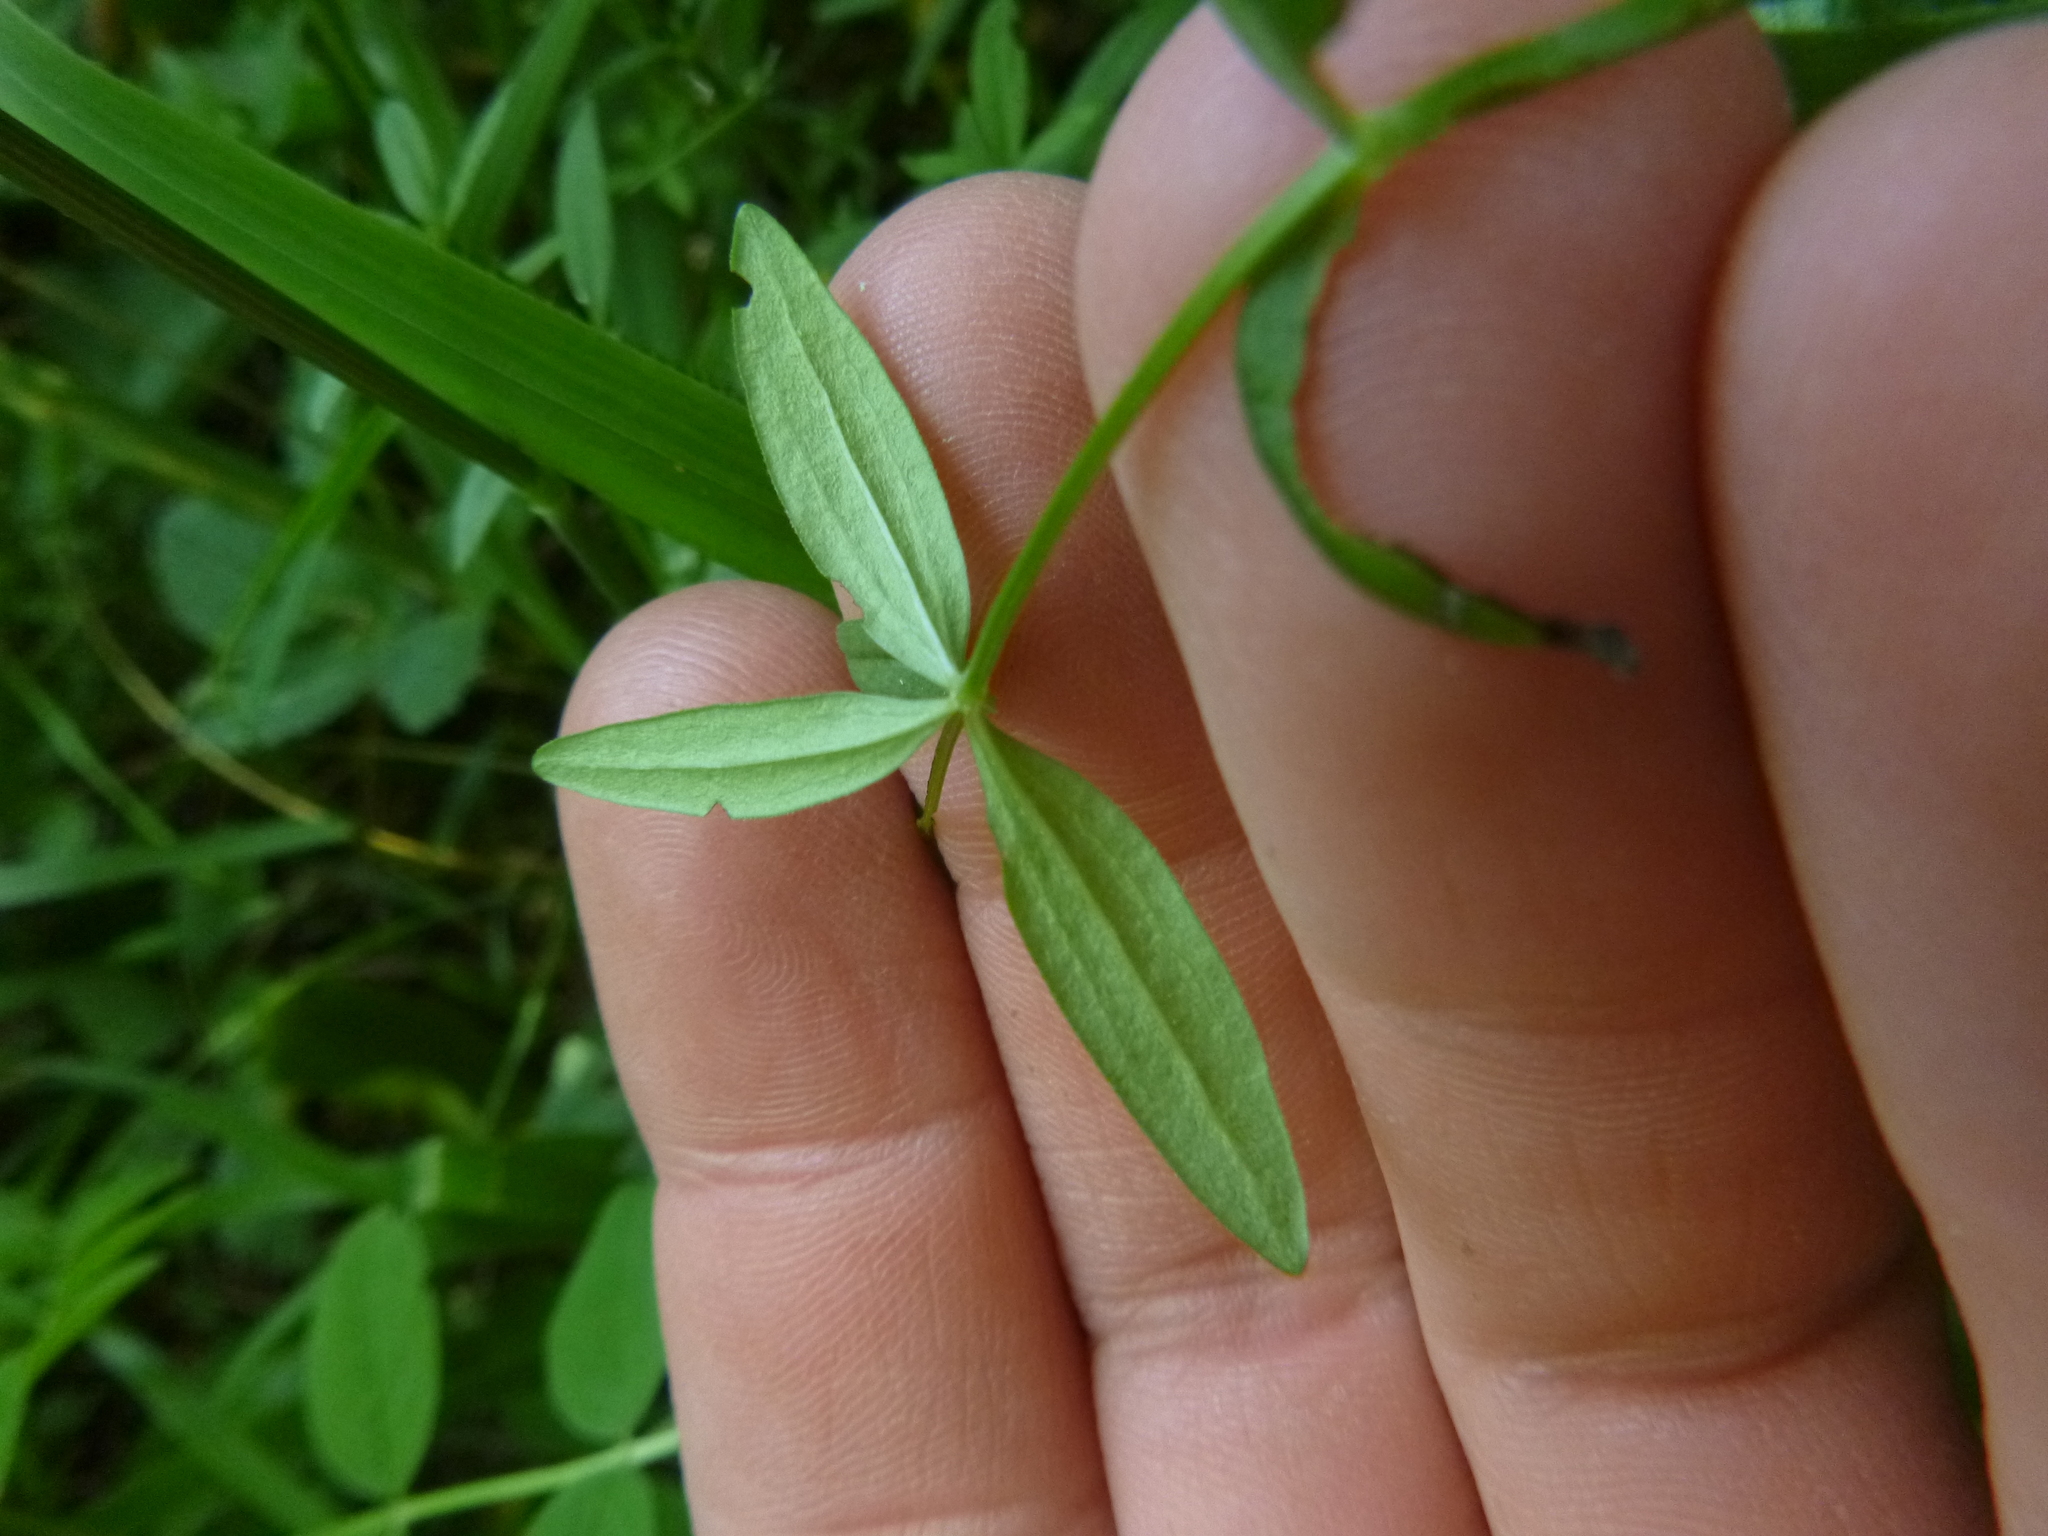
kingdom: Plantae
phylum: Tracheophyta
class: Magnoliopsida
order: Gentianales
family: Rubiaceae
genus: Galium
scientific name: Galium boreale
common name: Northern bedstraw
